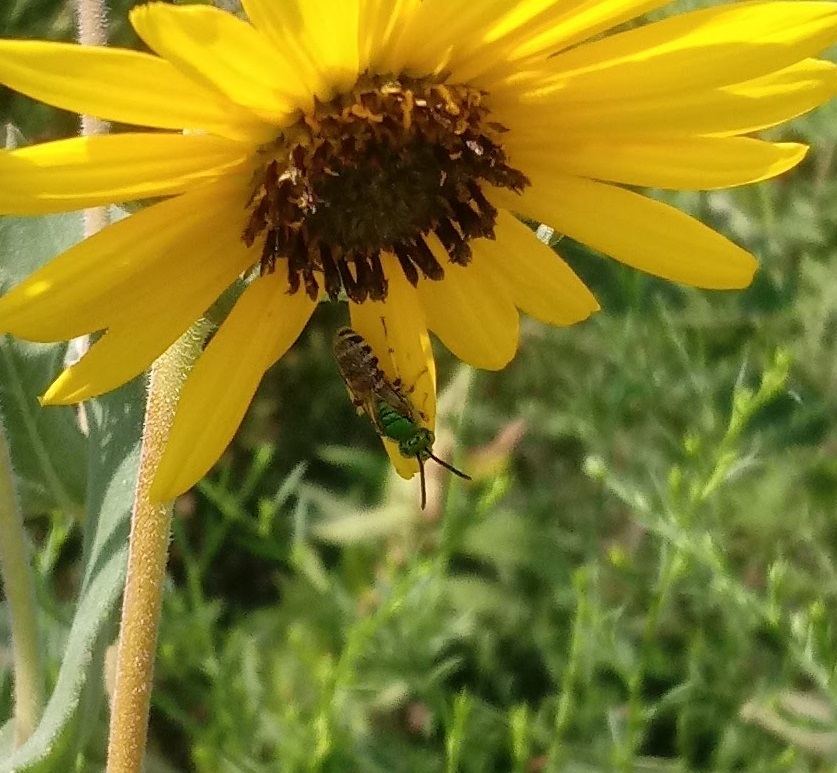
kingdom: Animalia
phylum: Arthropoda
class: Insecta
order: Hymenoptera
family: Halictidae
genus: Agapostemon
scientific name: Agapostemon virescens
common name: Bicolored striped sweat bee
